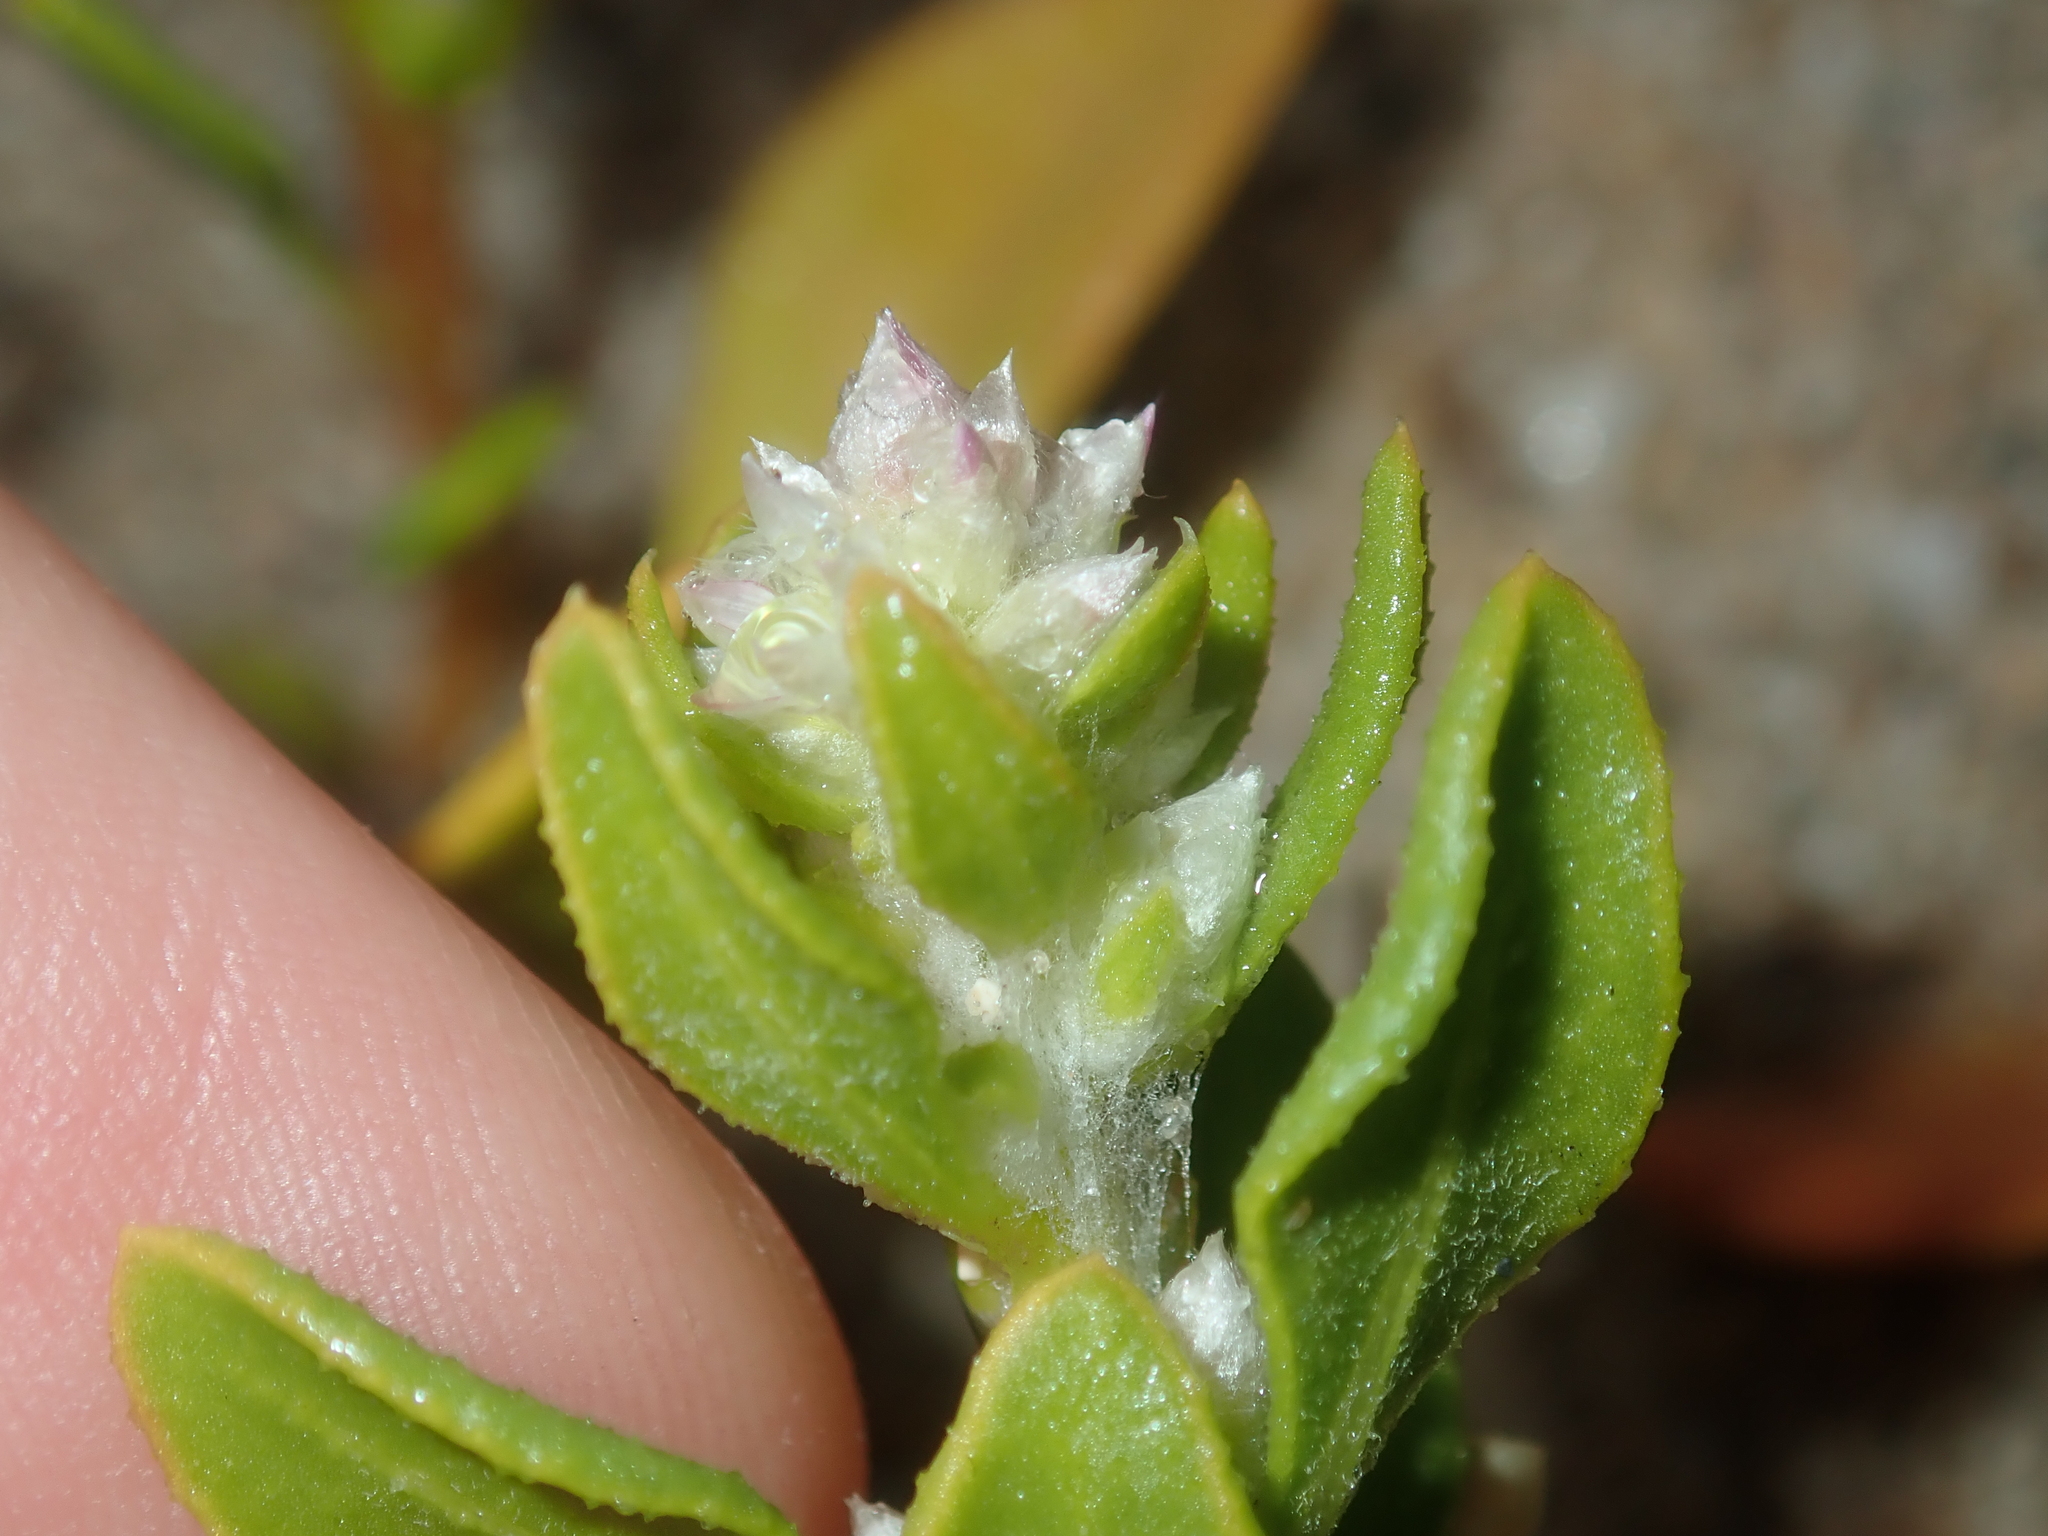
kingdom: Plantae
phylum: Tracheophyta
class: Magnoliopsida
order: Caryophyllales
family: Amaranthaceae
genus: Ptilotus
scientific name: Ptilotus villosiflorus
